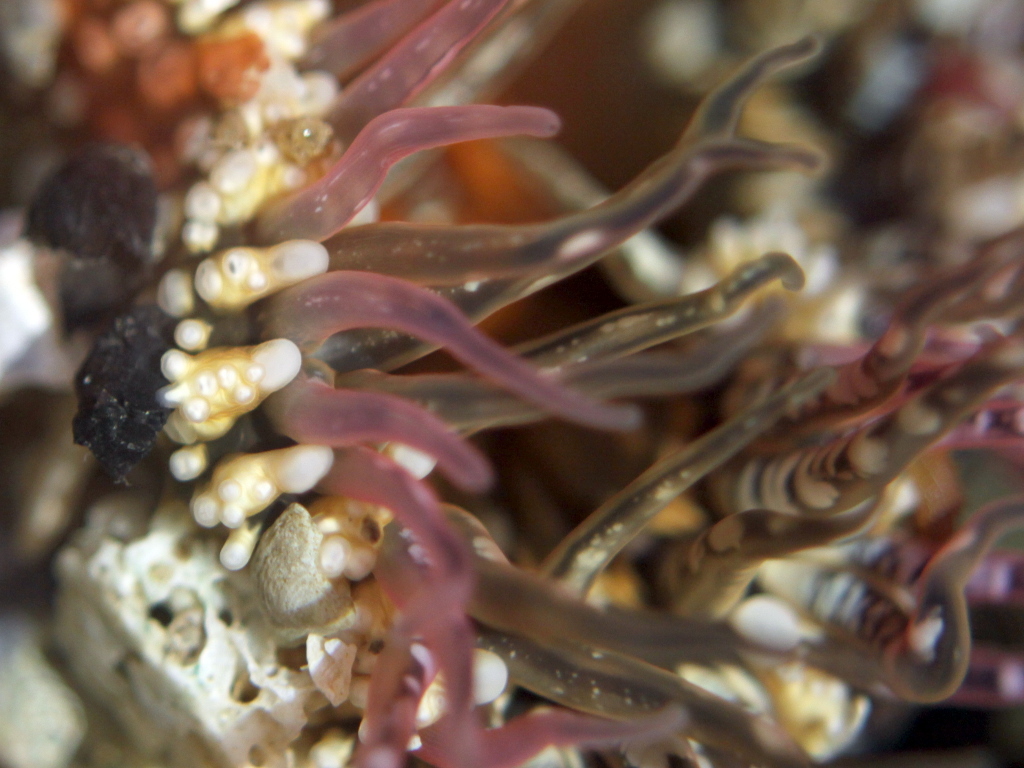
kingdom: Animalia
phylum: Cnidaria
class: Anthozoa
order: Actiniaria
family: Actiniidae
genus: Oulactis
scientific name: Oulactis muscosa
